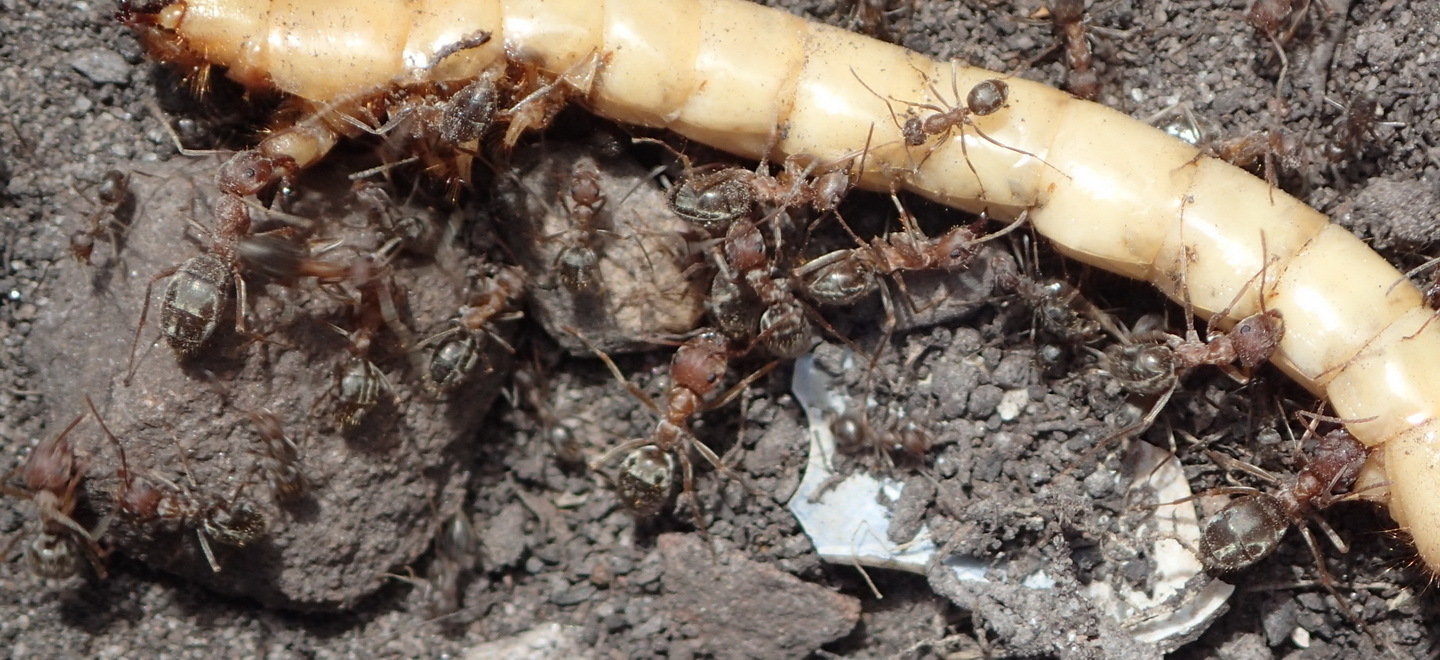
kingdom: Animalia
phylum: Arthropoda
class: Insecta
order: Hymenoptera
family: Formicidae
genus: Anoplolepis
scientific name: Anoplolepis custodiens
